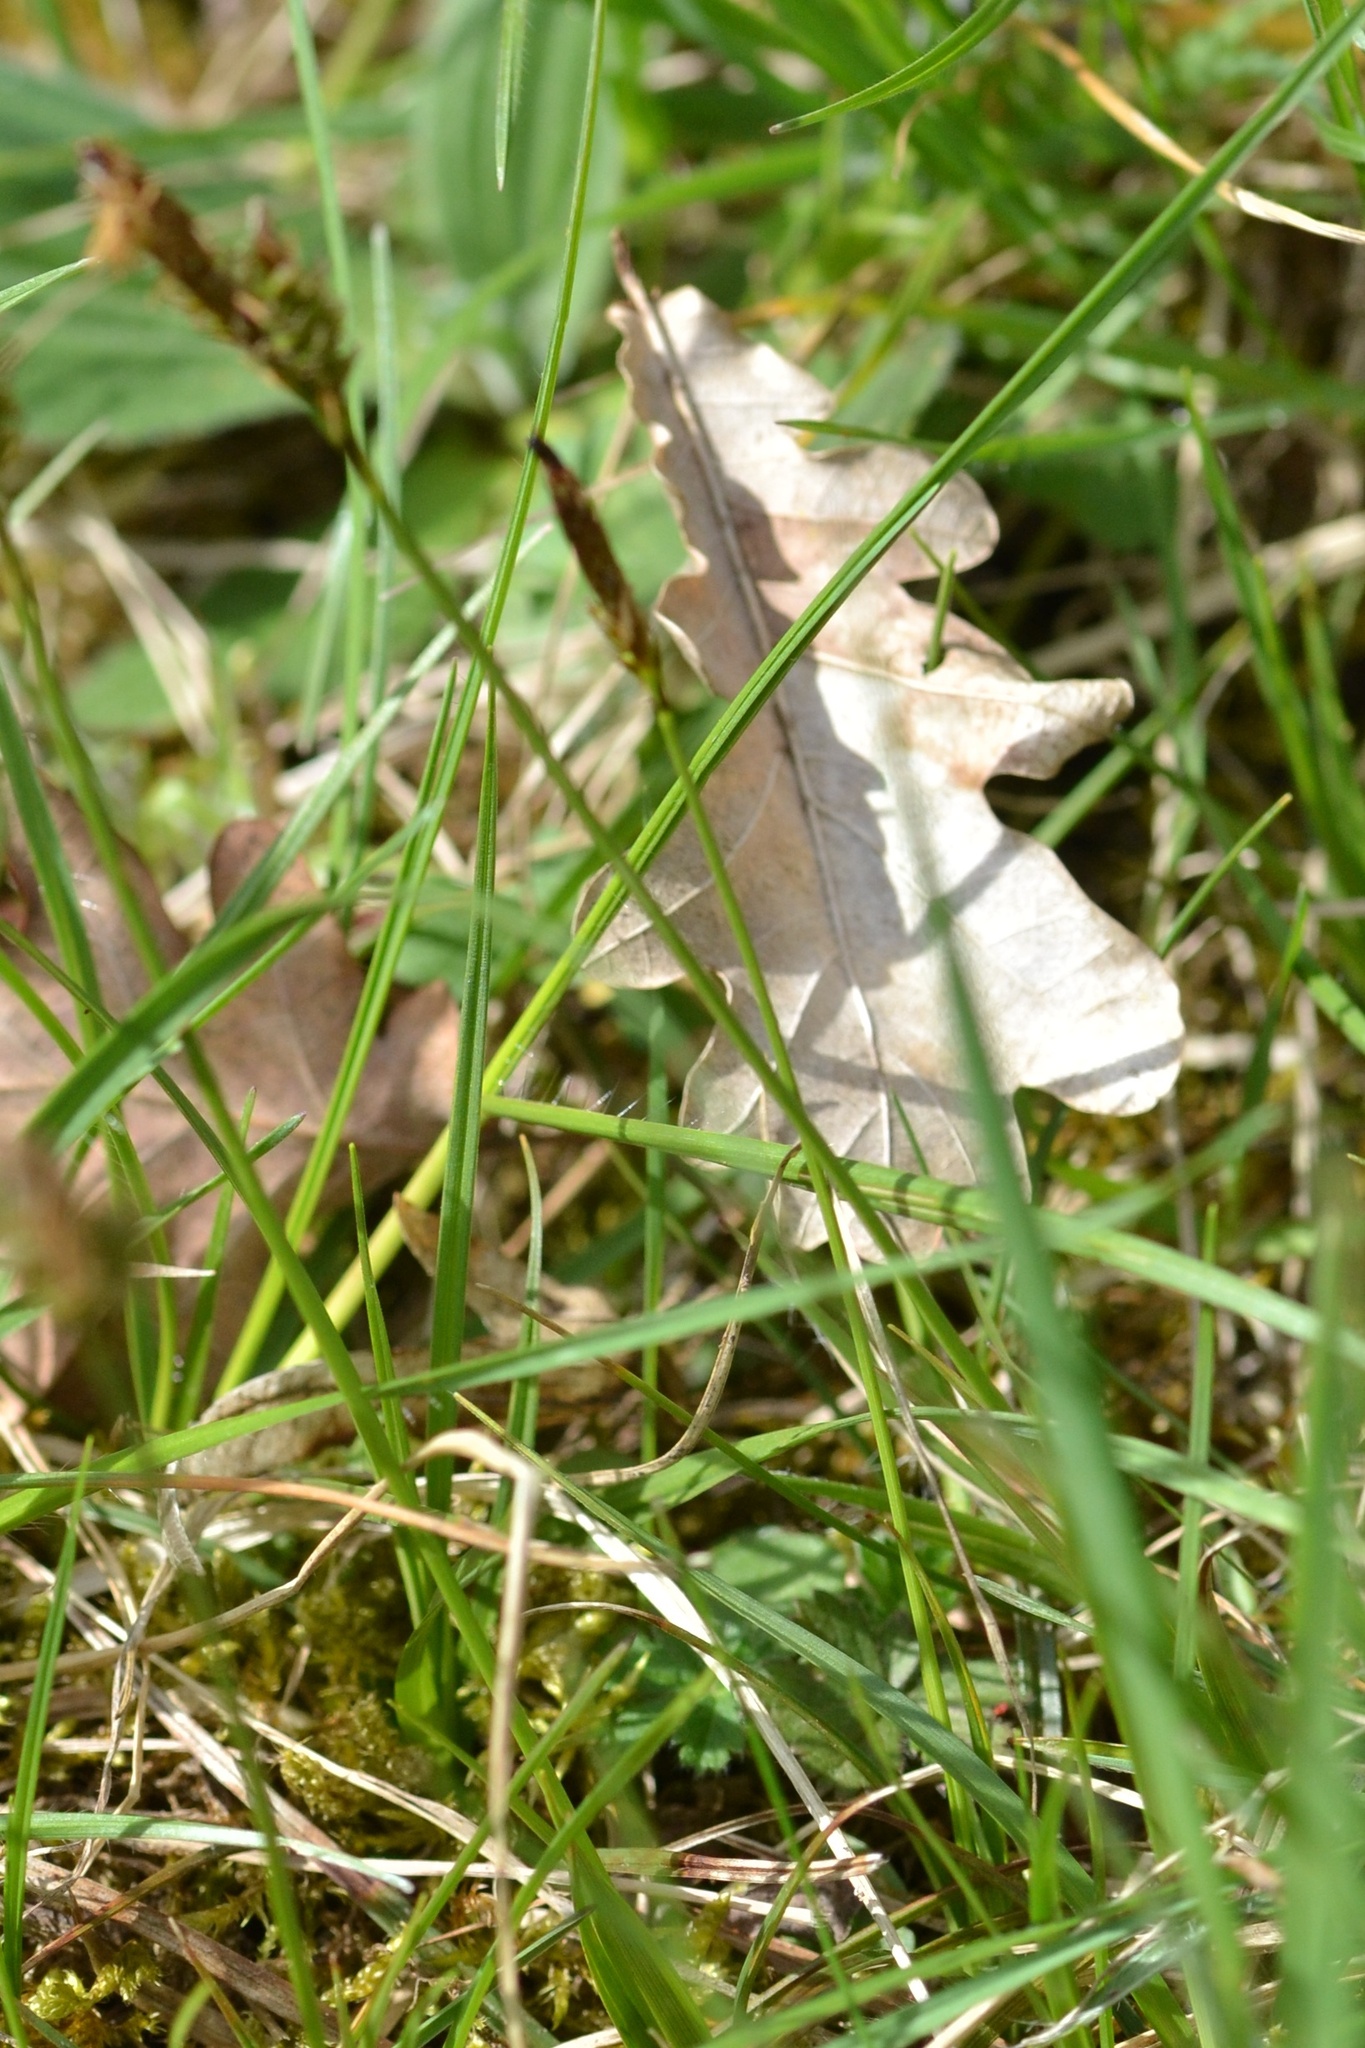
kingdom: Plantae
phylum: Tracheophyta
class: Liliopsida
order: Poales
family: Cyperaceae
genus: Carex
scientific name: Carex caryophyllea
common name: Spring sedge
